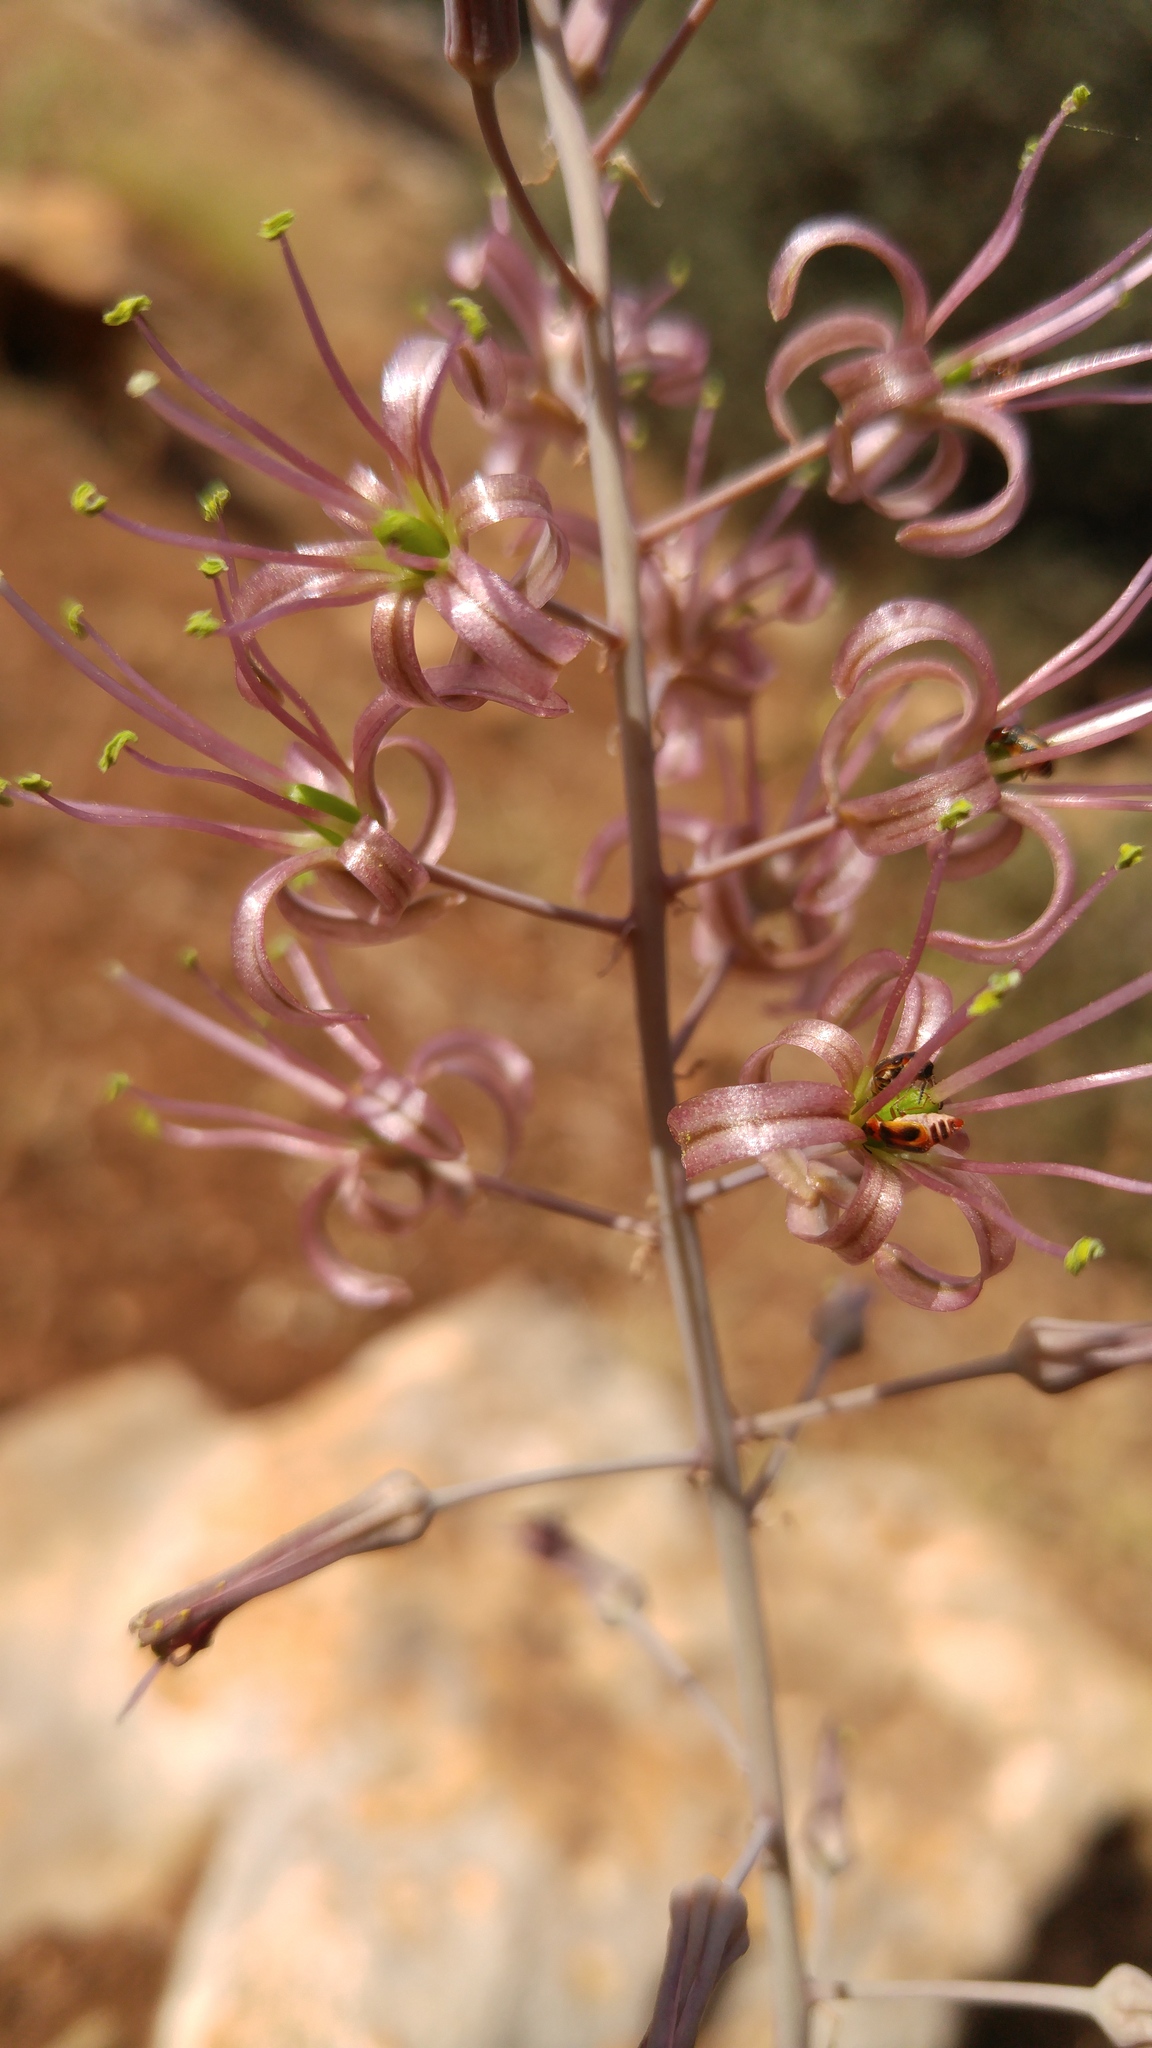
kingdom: Plantae
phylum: Tracheophyta
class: Liliopsida
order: Asparagales
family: Asparagaceae
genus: Drimia
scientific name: Drimia purpurascens
